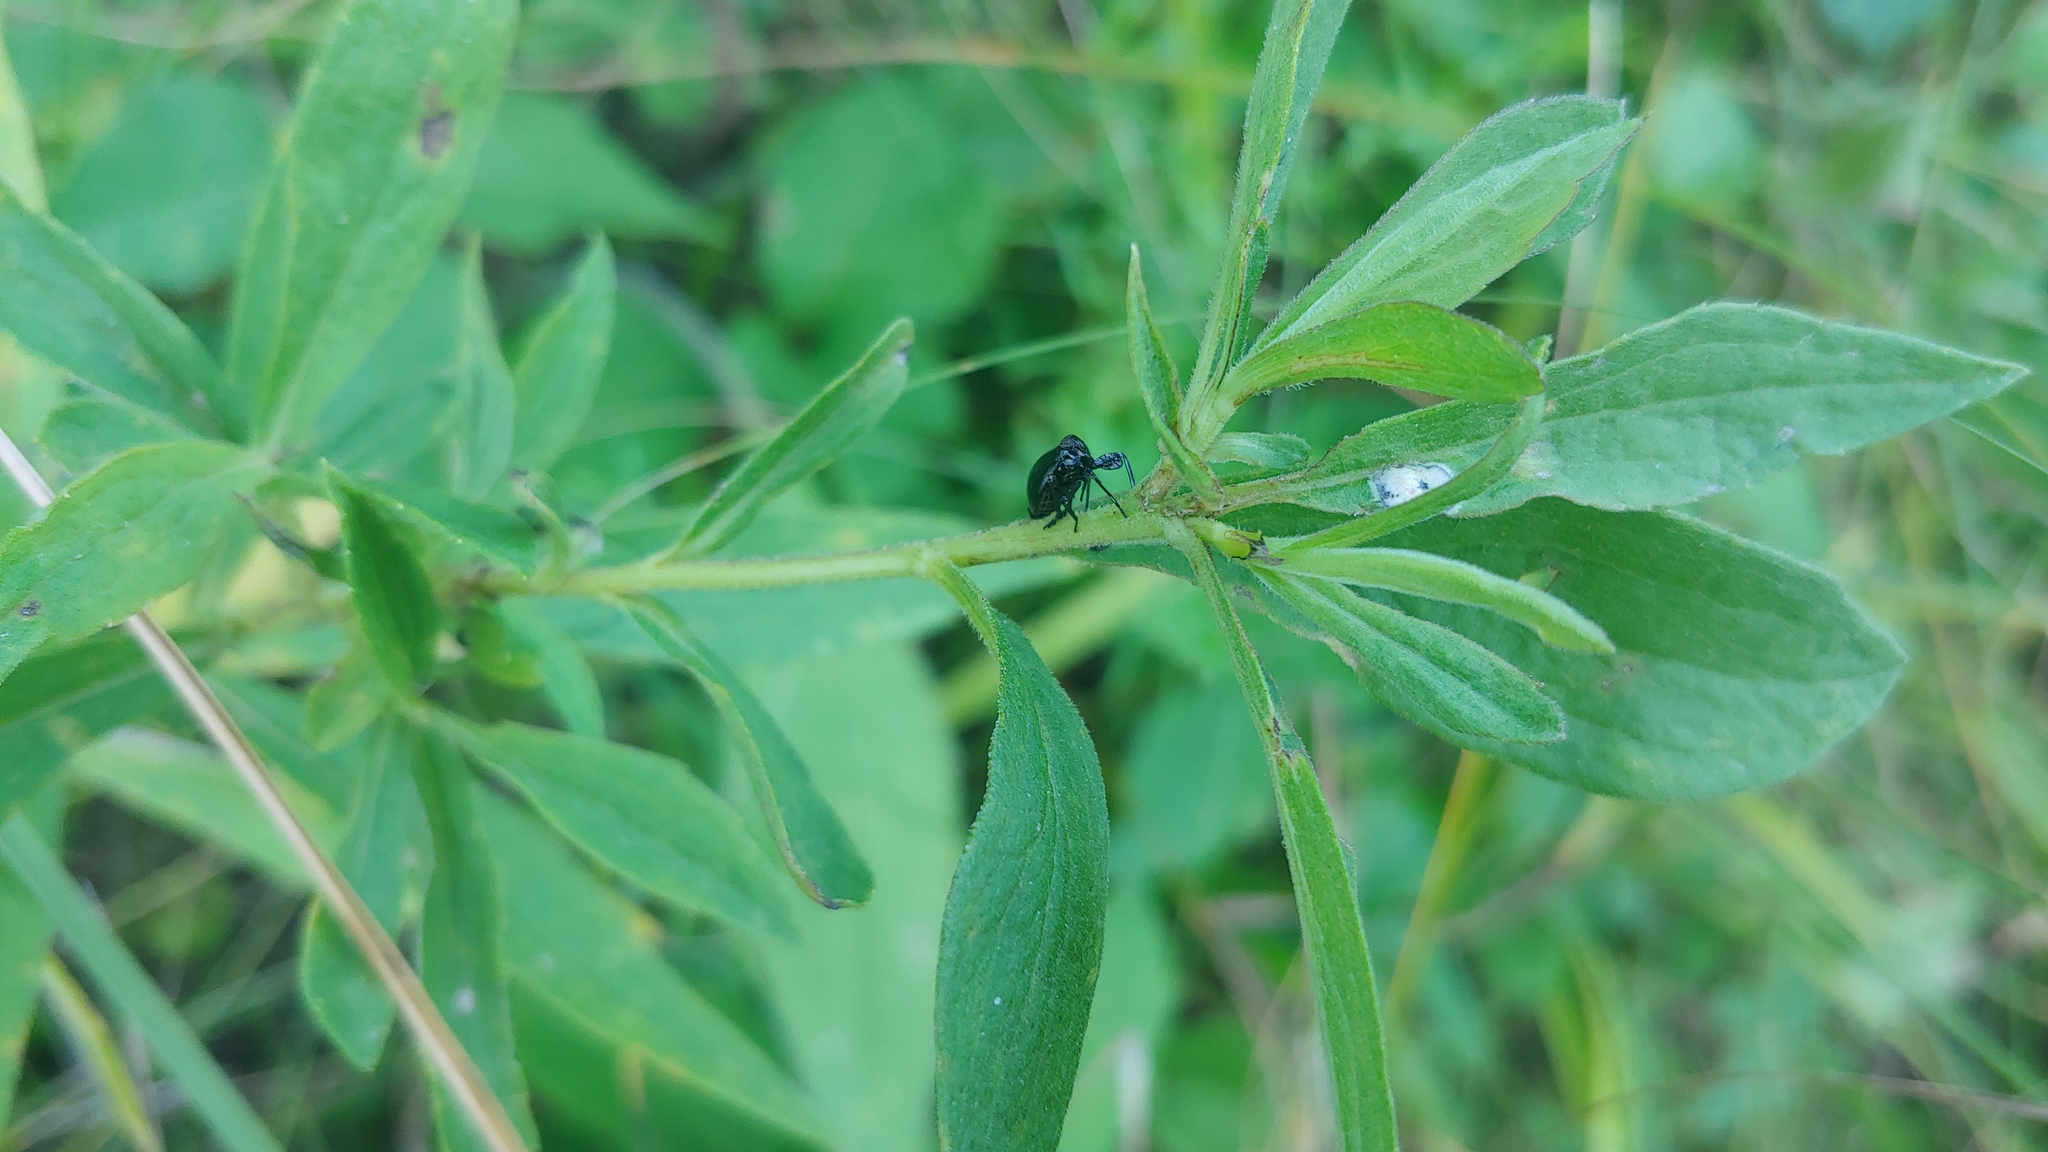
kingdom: Animalia
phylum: Arthropoda
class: Insecta
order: Hemiptera
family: Achilidae
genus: Isodaemon
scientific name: Isodaemon orontes
